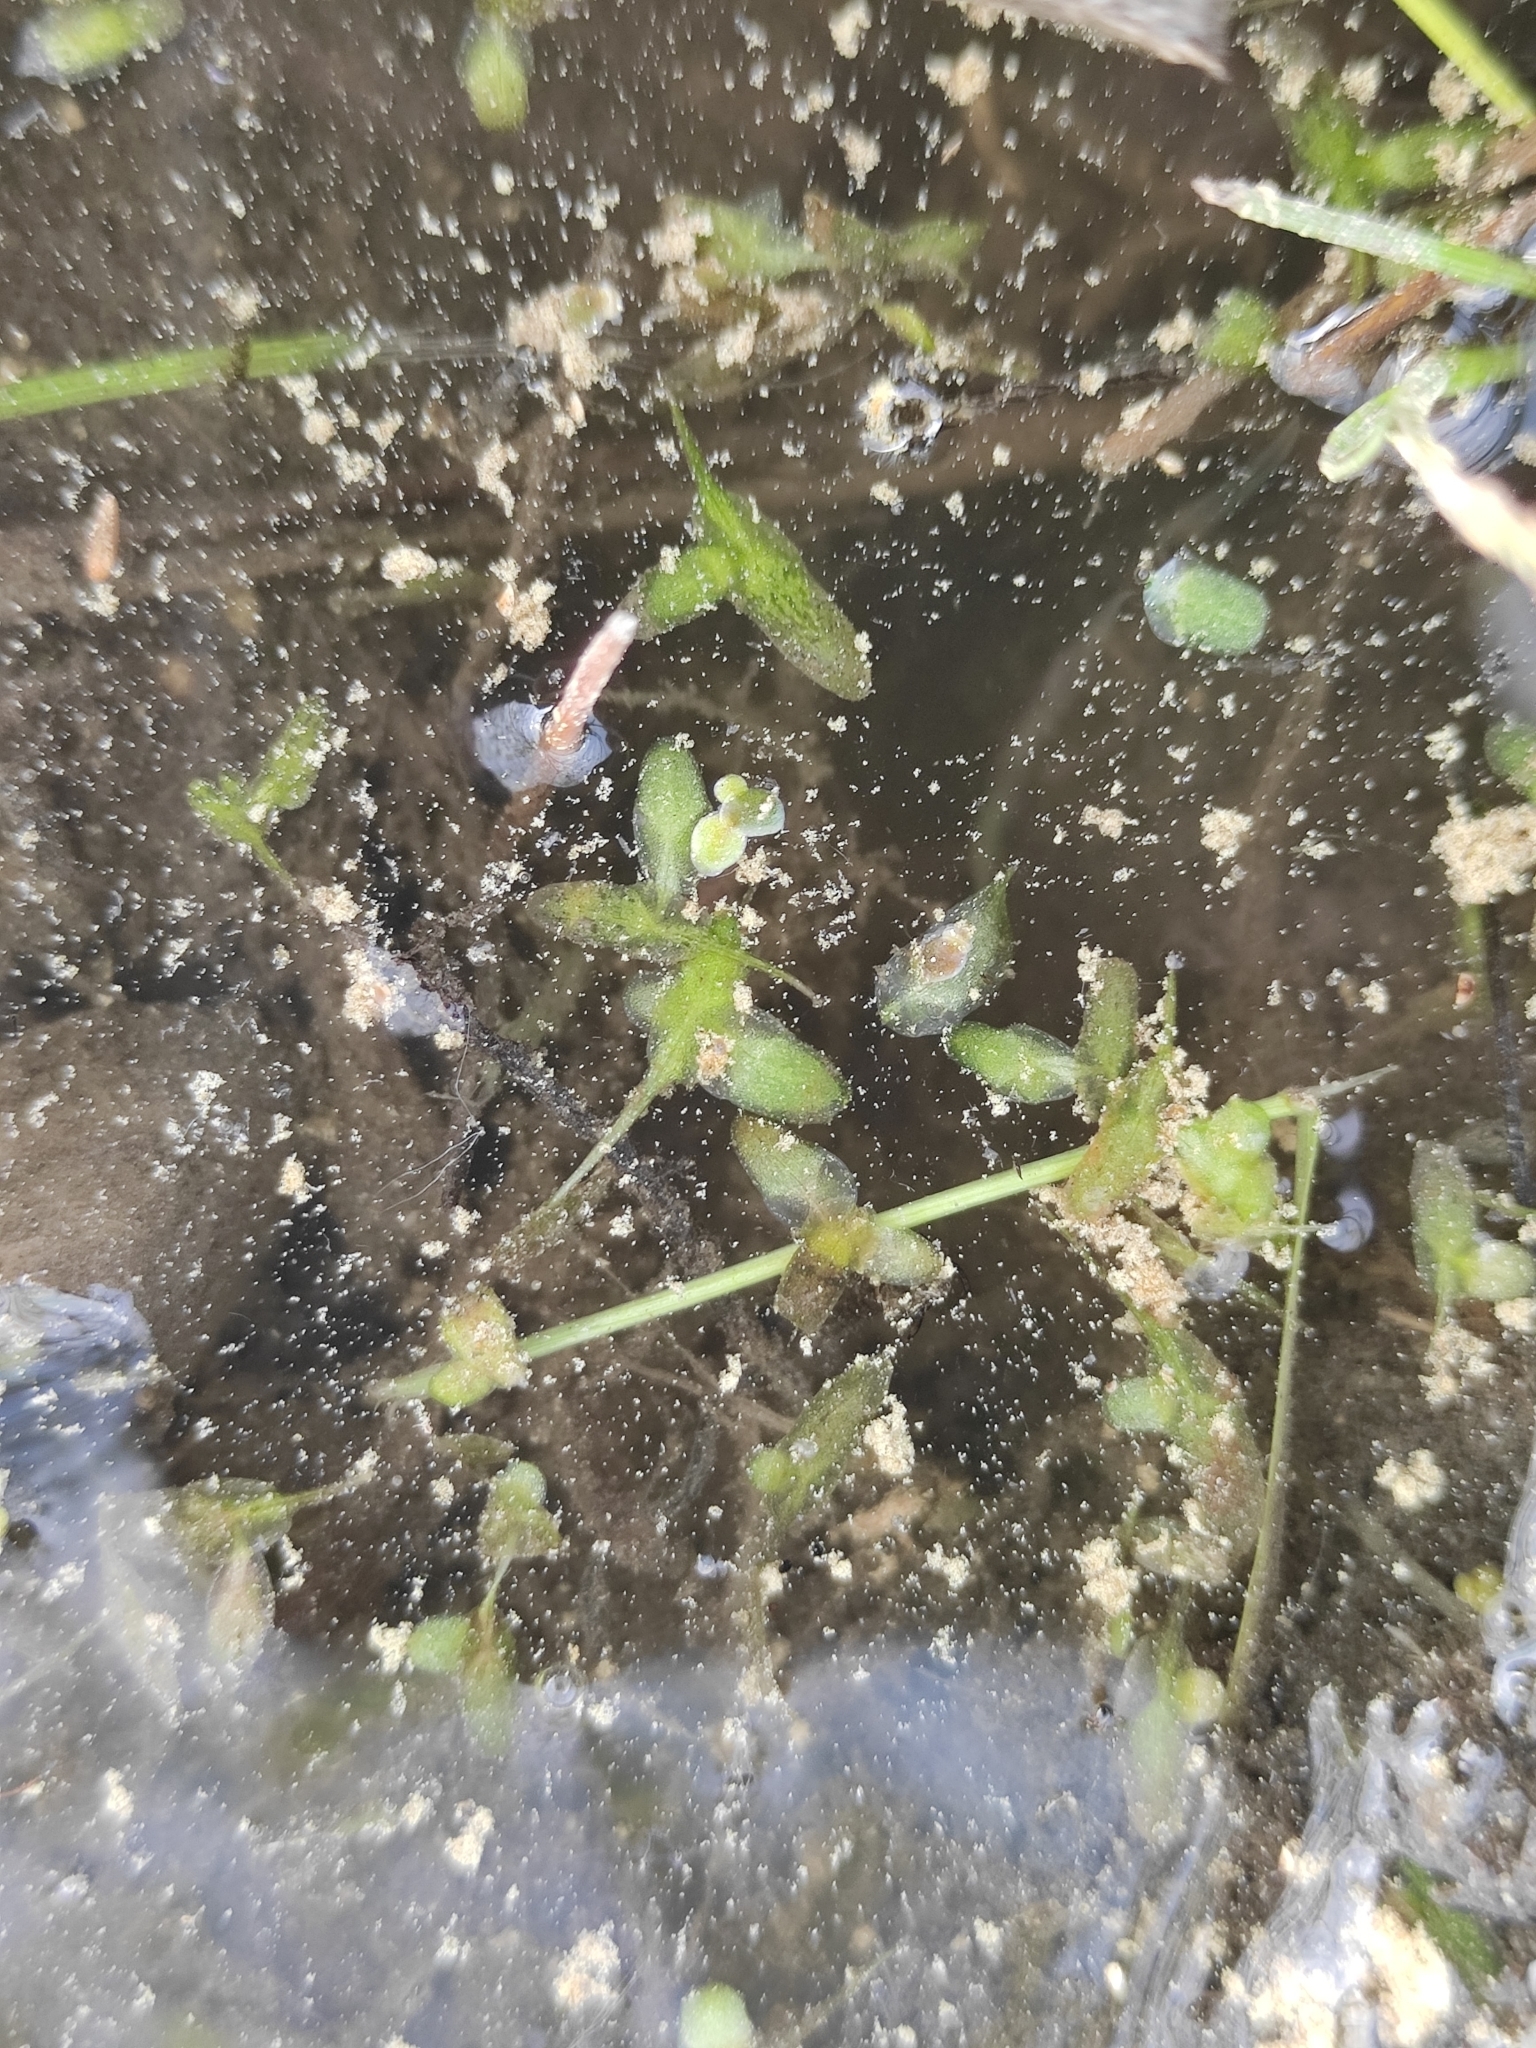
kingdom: Plantae
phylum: Tracheophyta
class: Liliopsida
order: Alismatales
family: Araceae
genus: Lemna
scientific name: Lemna trisulca
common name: Ivy-leaved duckweed
